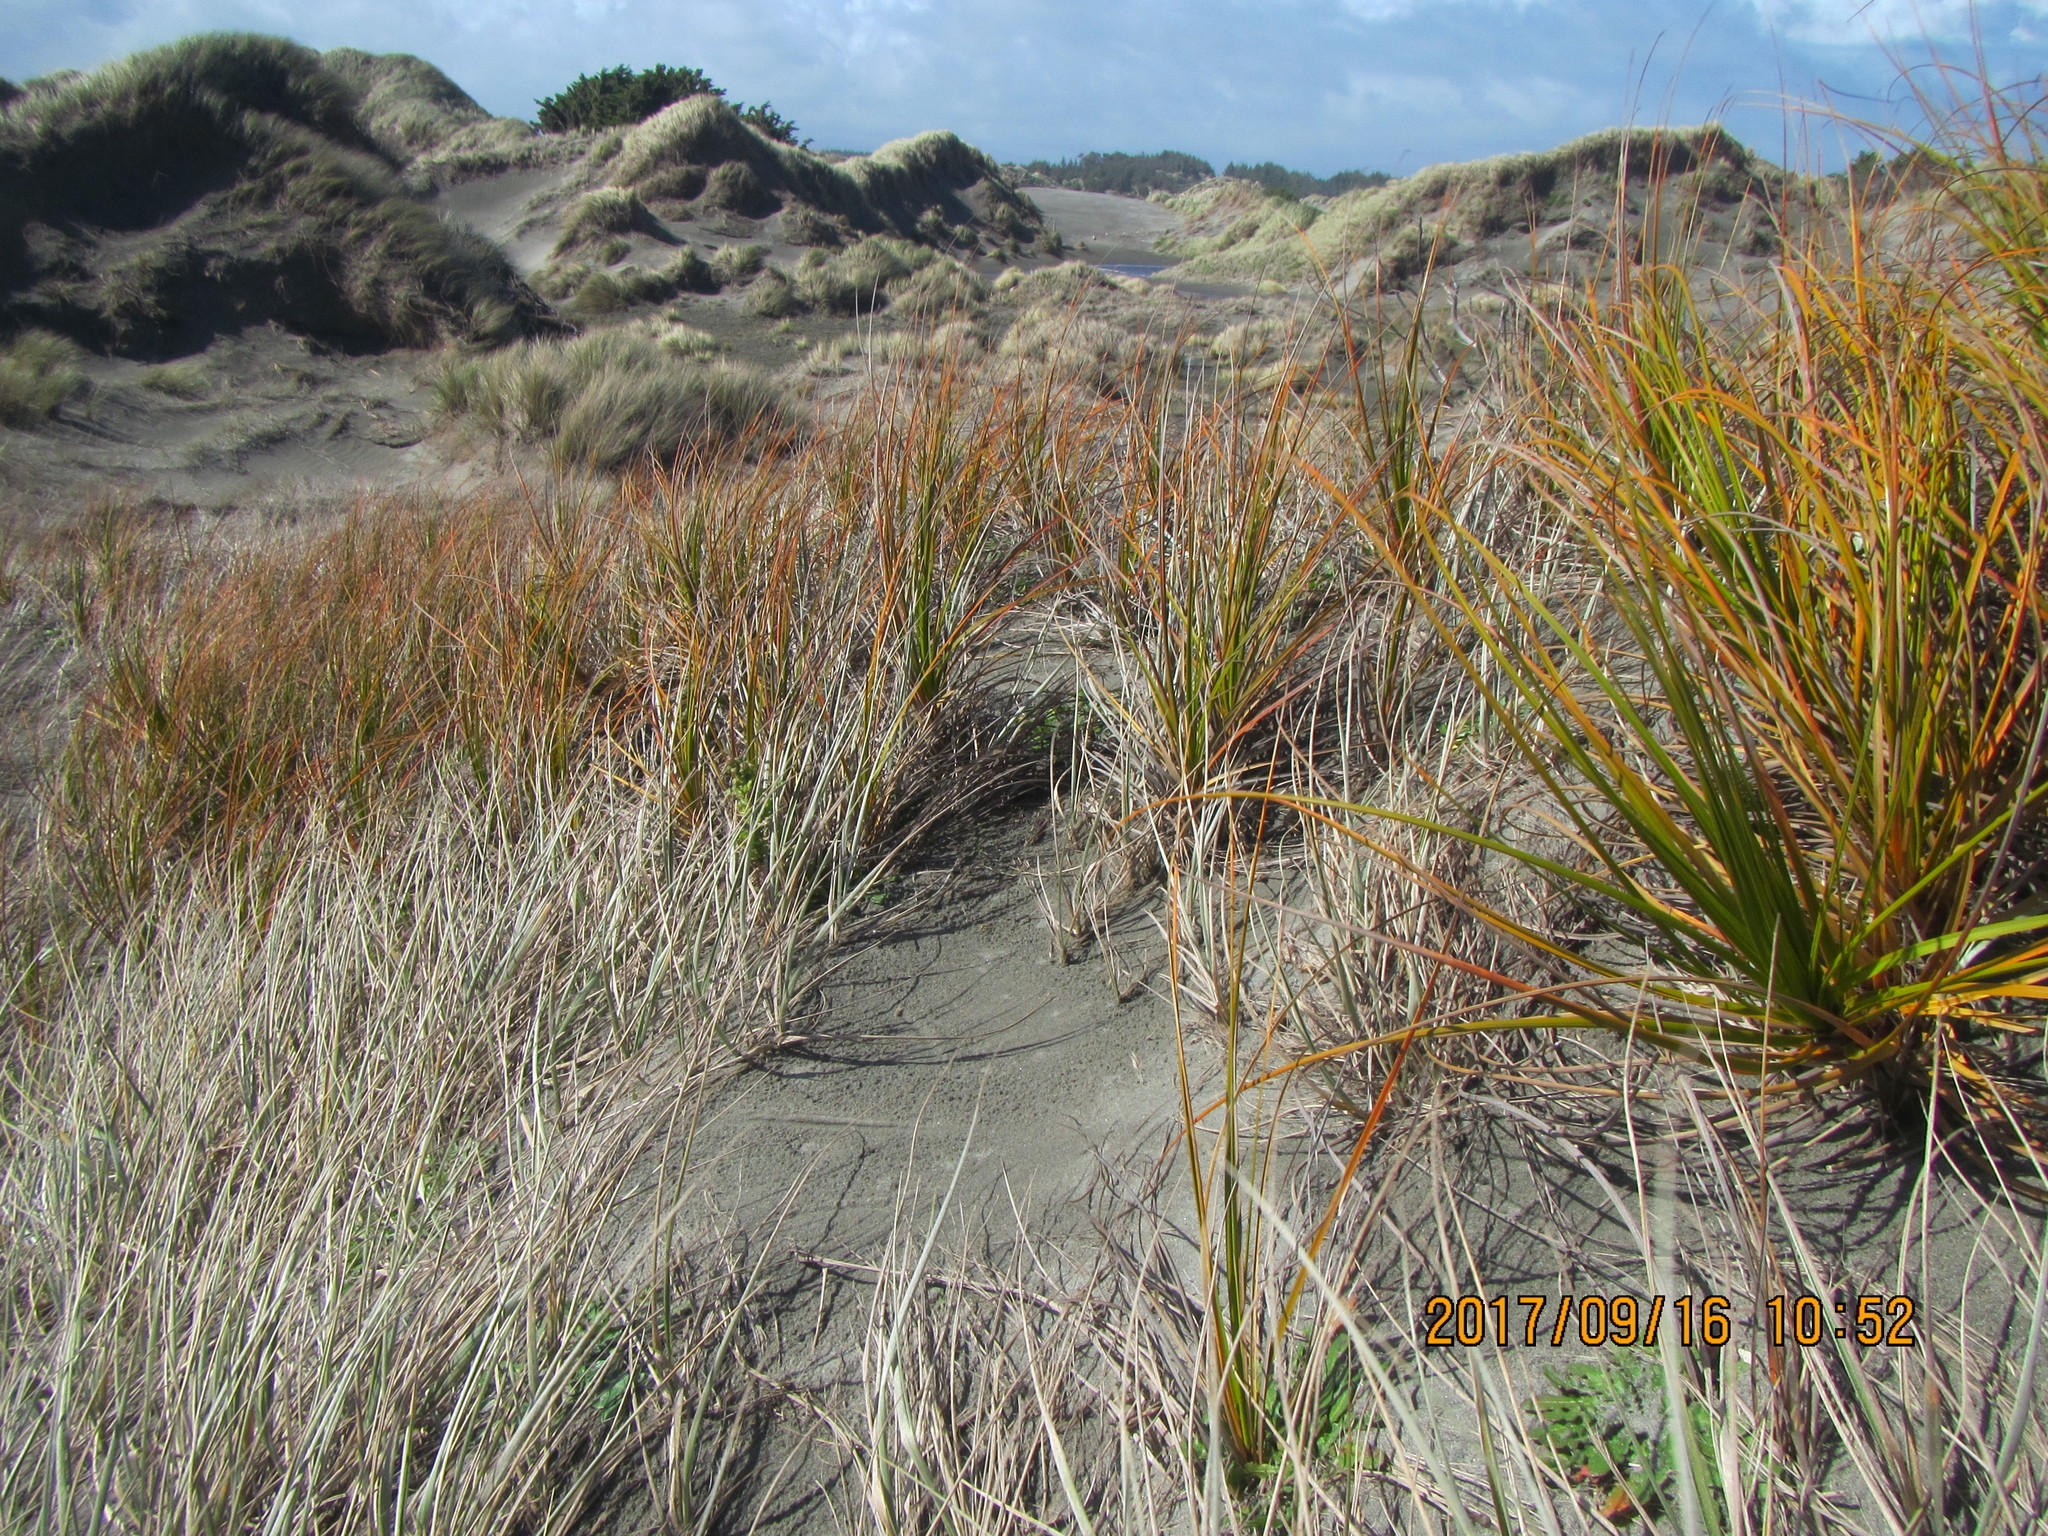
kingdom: Plantae
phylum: Tracheophyta
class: Liliopsida
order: Poales
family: Cyperaceae
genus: Ficinia
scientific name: Ficinia spiralis
